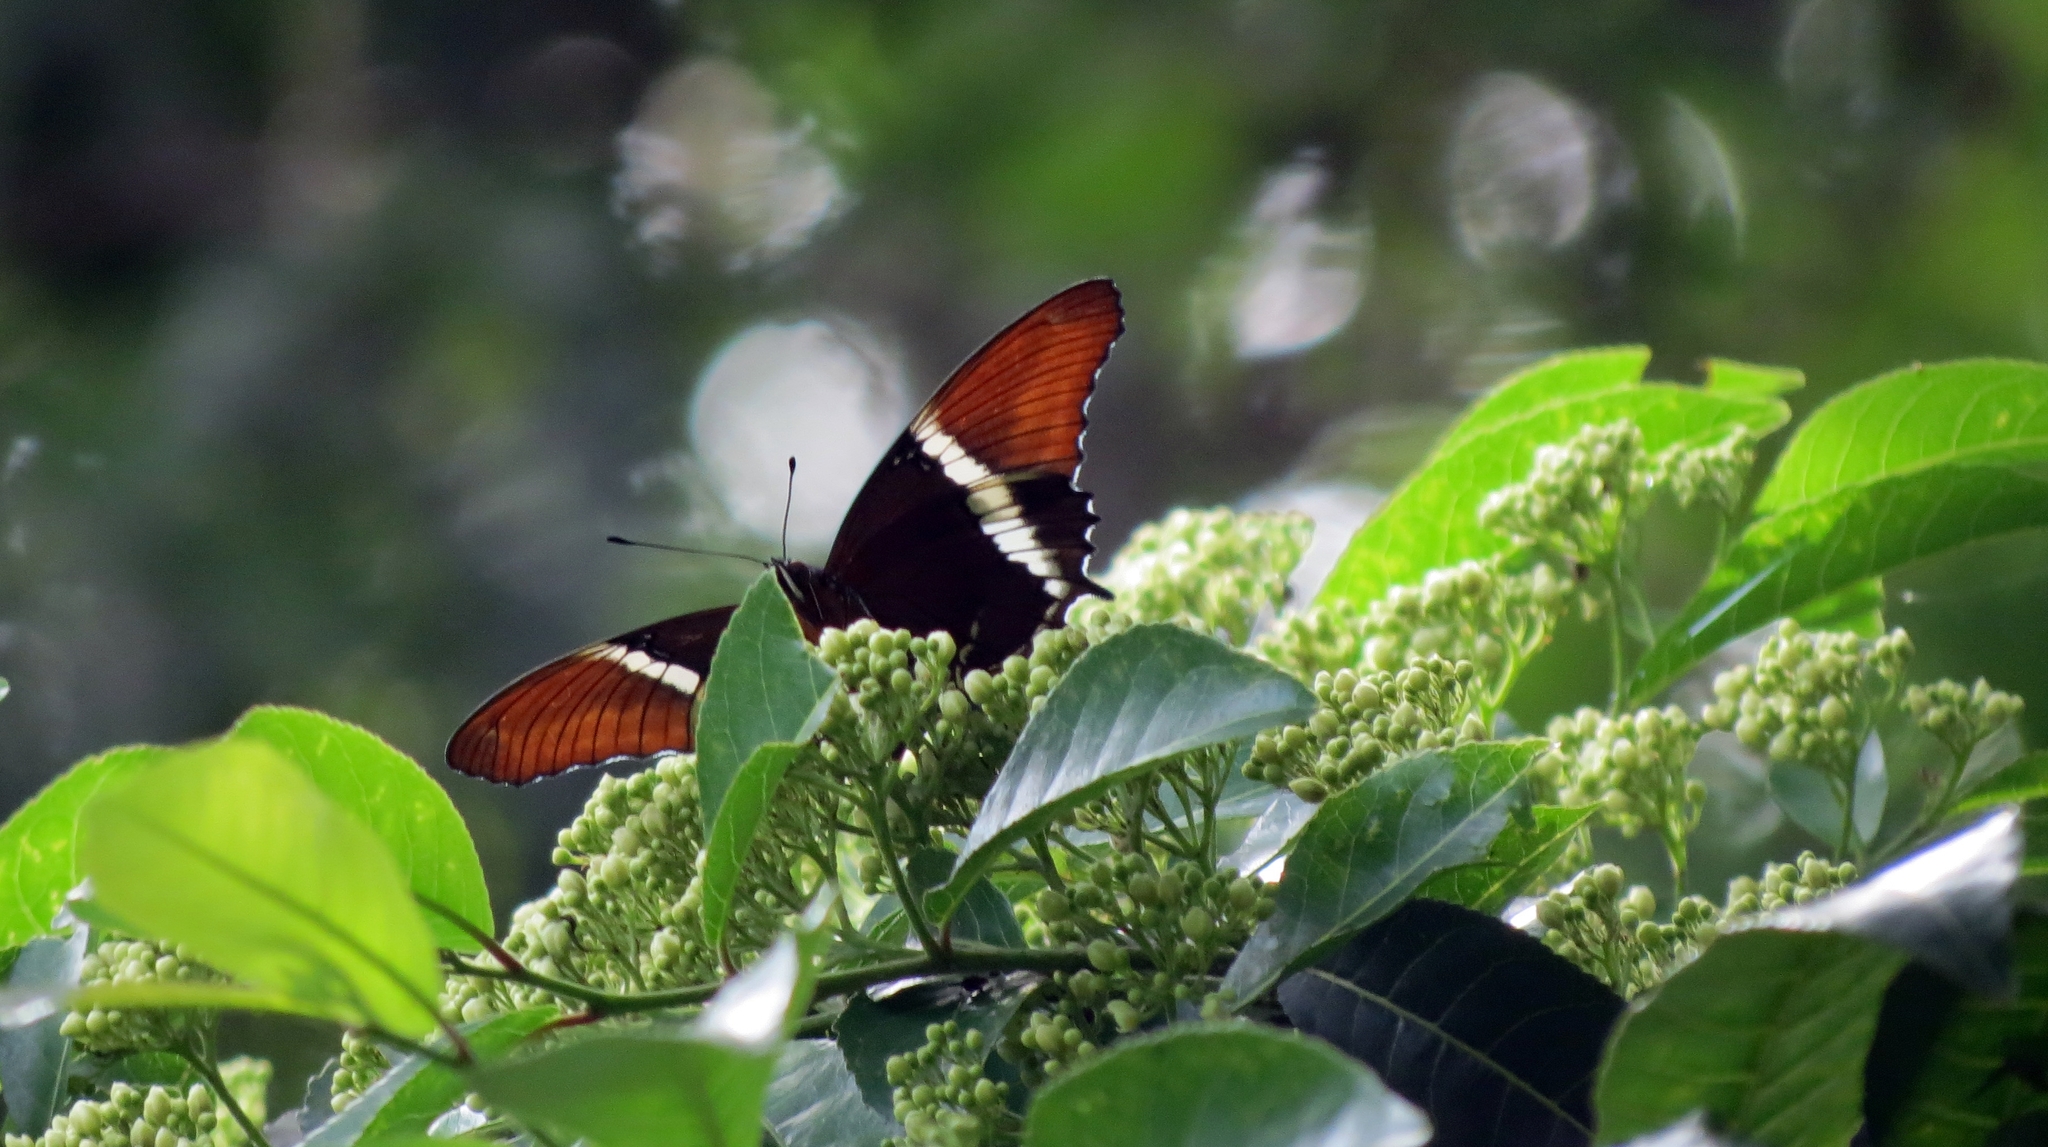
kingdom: Animalia
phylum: Arthropoda
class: Insecta
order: Lepidoptera
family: Nymphalidae
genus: Siproeta
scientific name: Siproeta epaphus
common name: Rusty-tipped page
